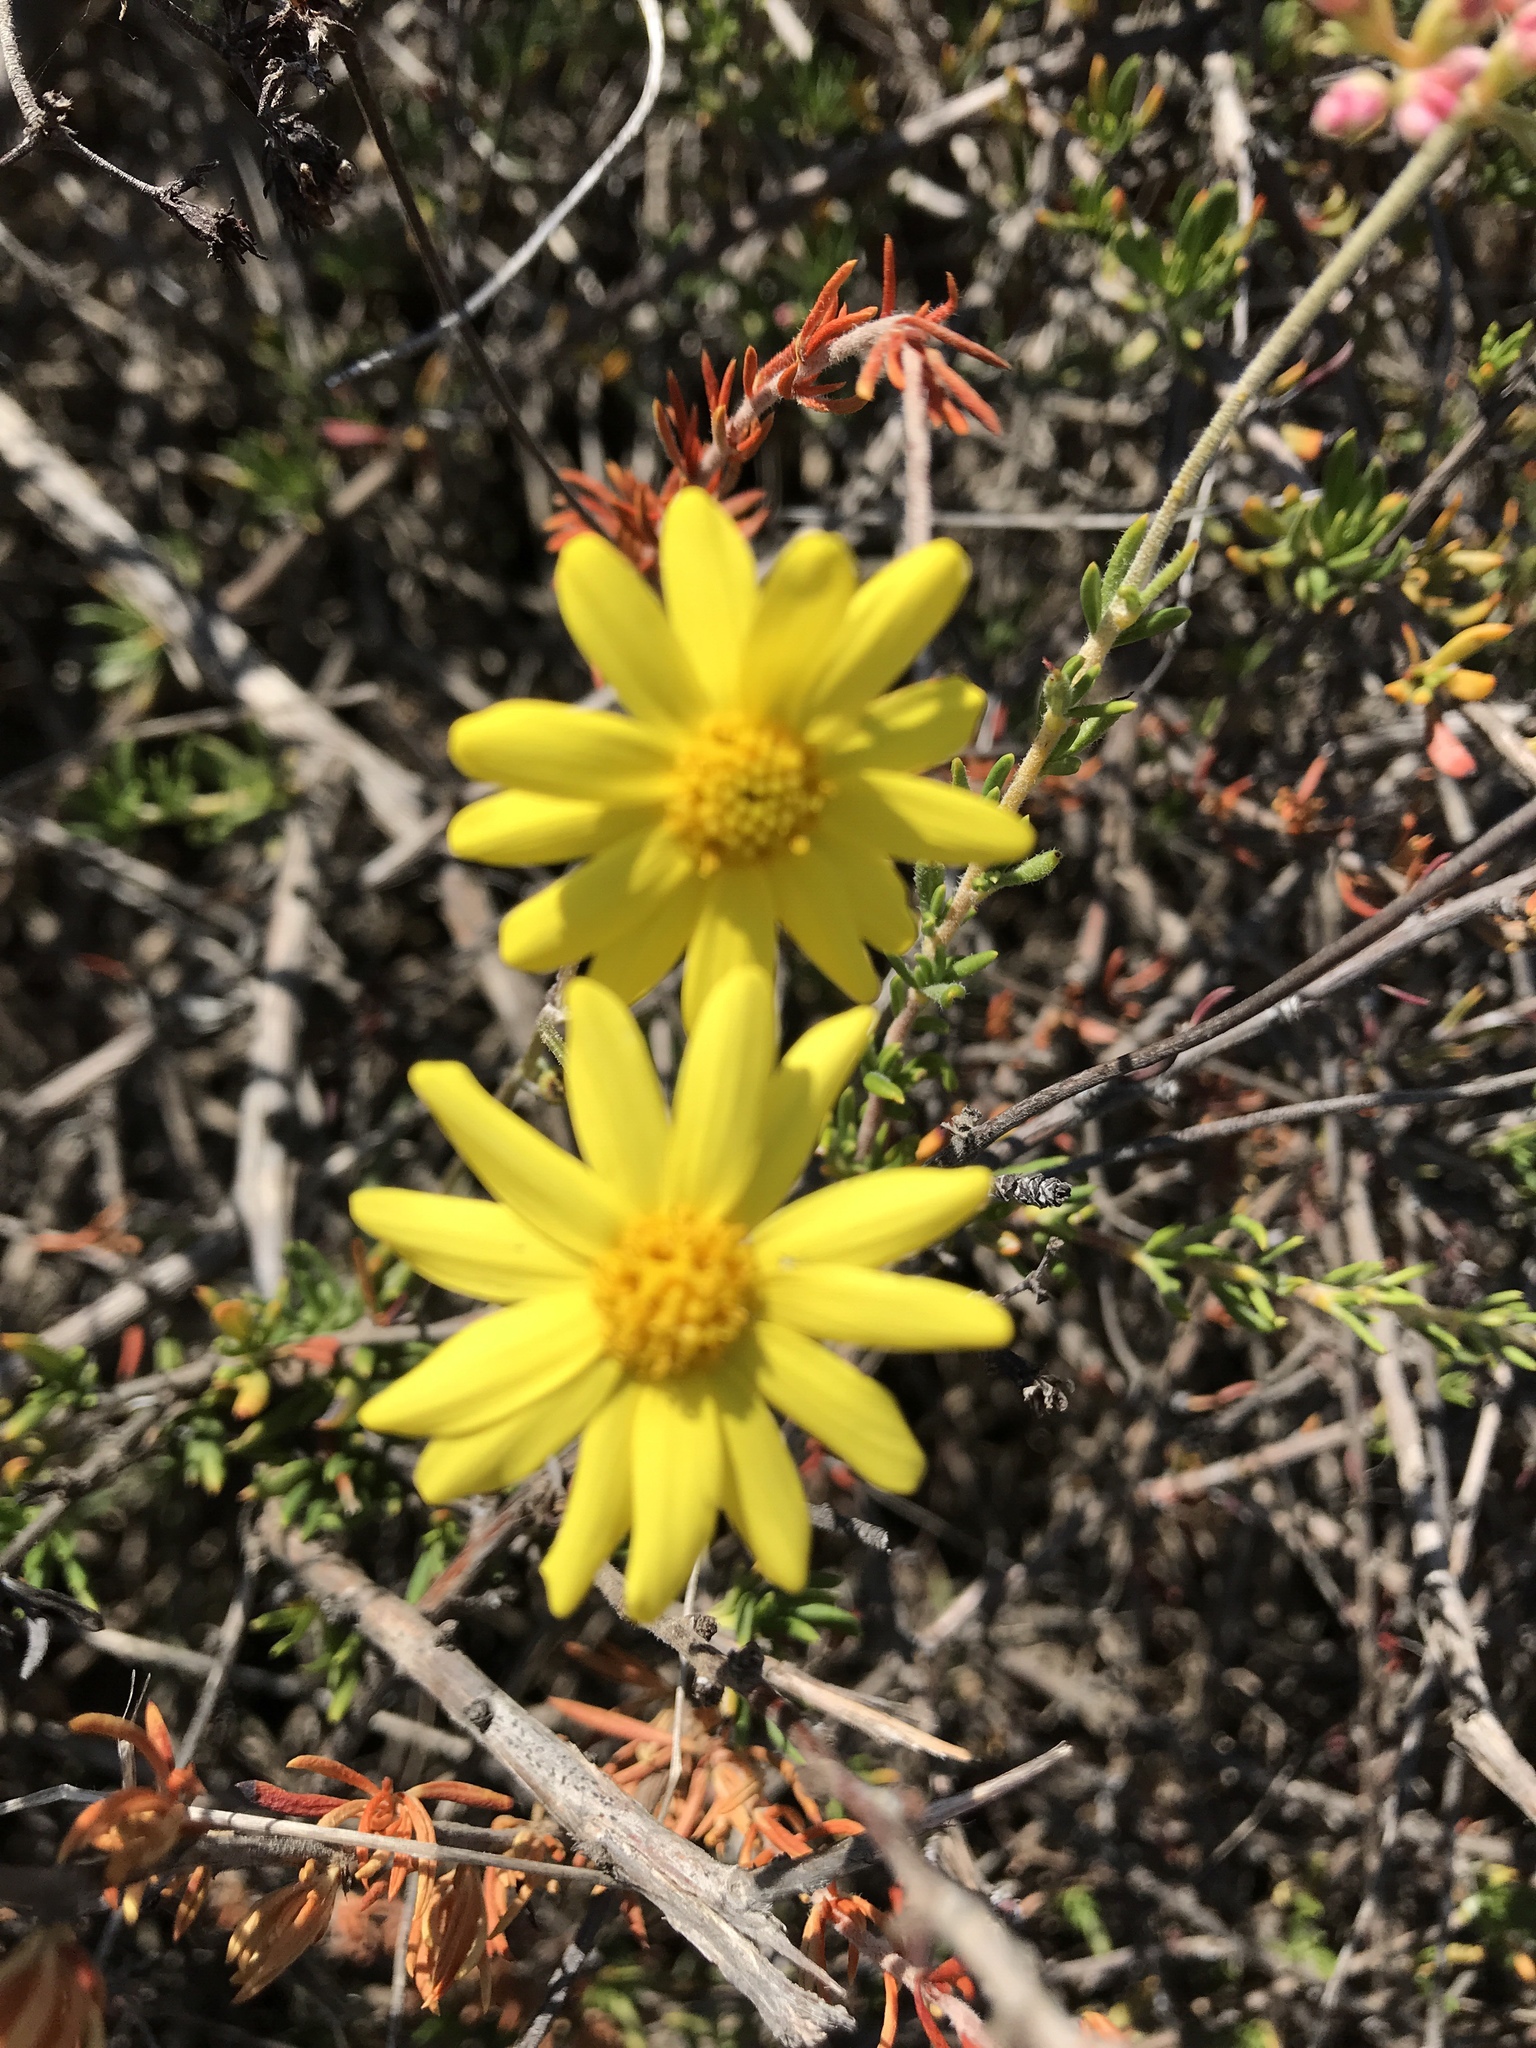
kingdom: Plantae
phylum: Tracheophyta
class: Magnoliopsida
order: Asterales
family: Asteraceae
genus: Senecio
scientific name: Senecio californicus
